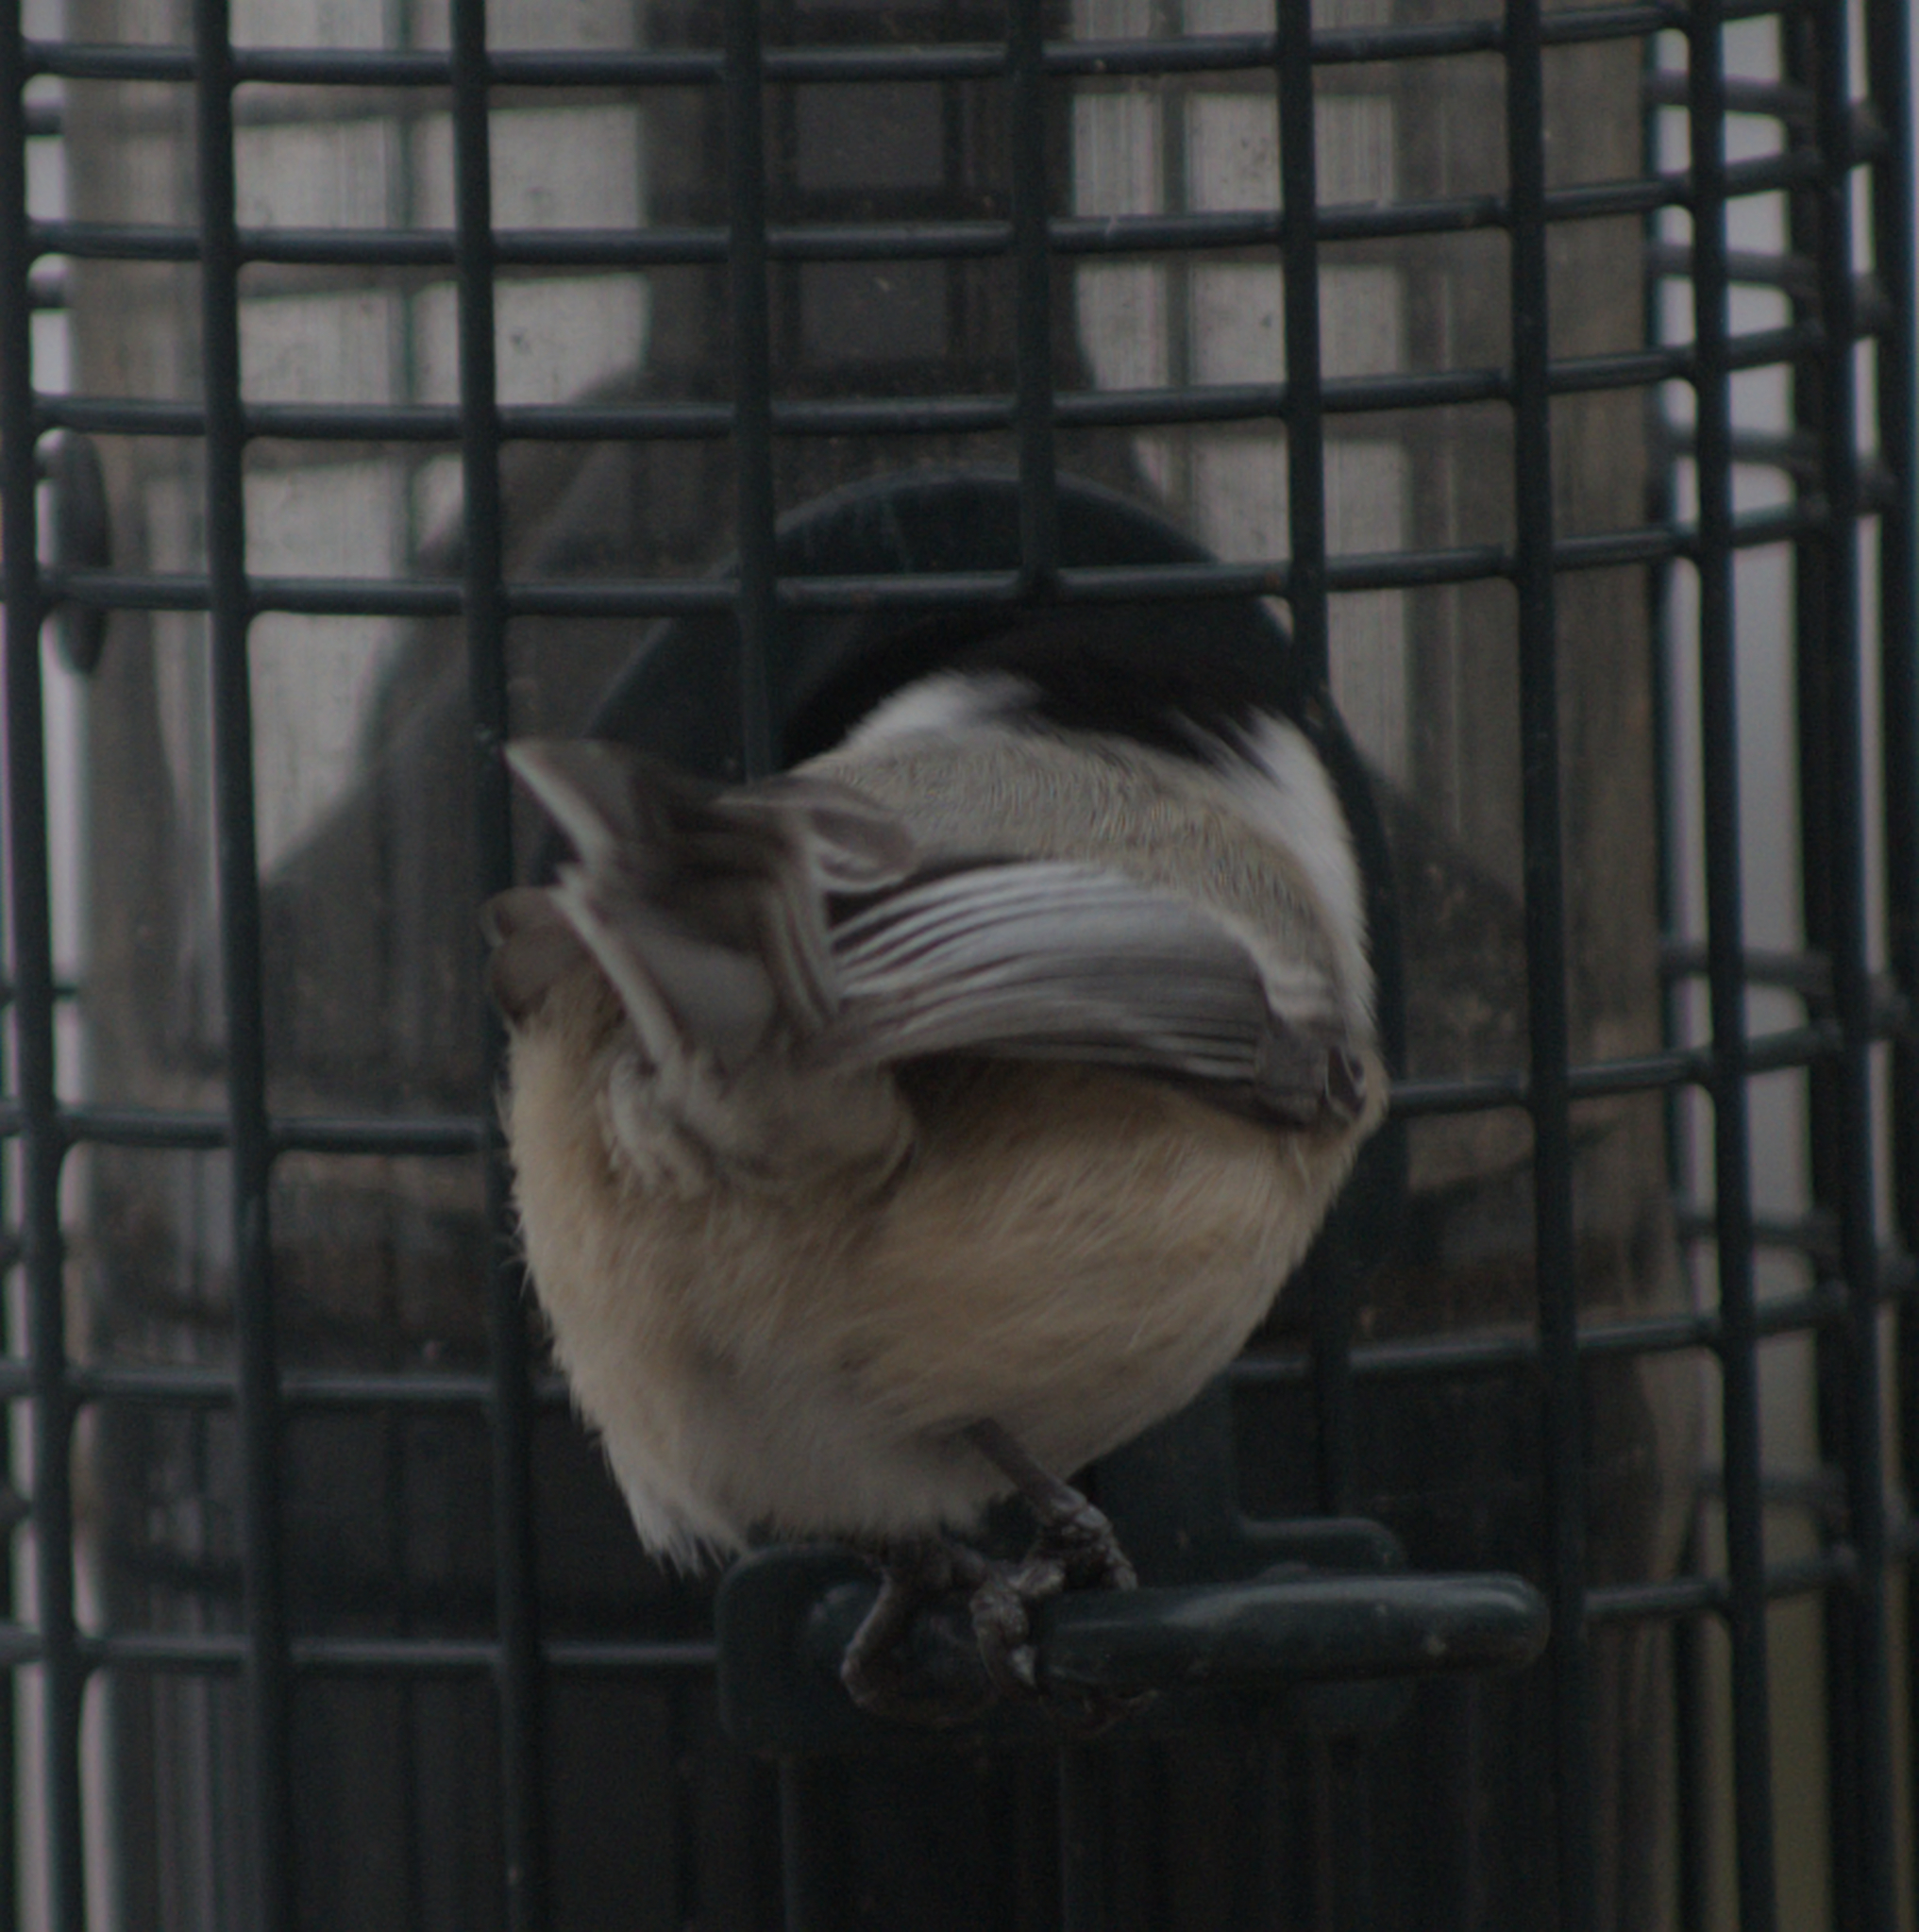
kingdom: Animalia
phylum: Chordata
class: Aves
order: Passeriformes
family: Paridae
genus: Poecile
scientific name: Poecile atricapillus
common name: Black-capped chickadee
